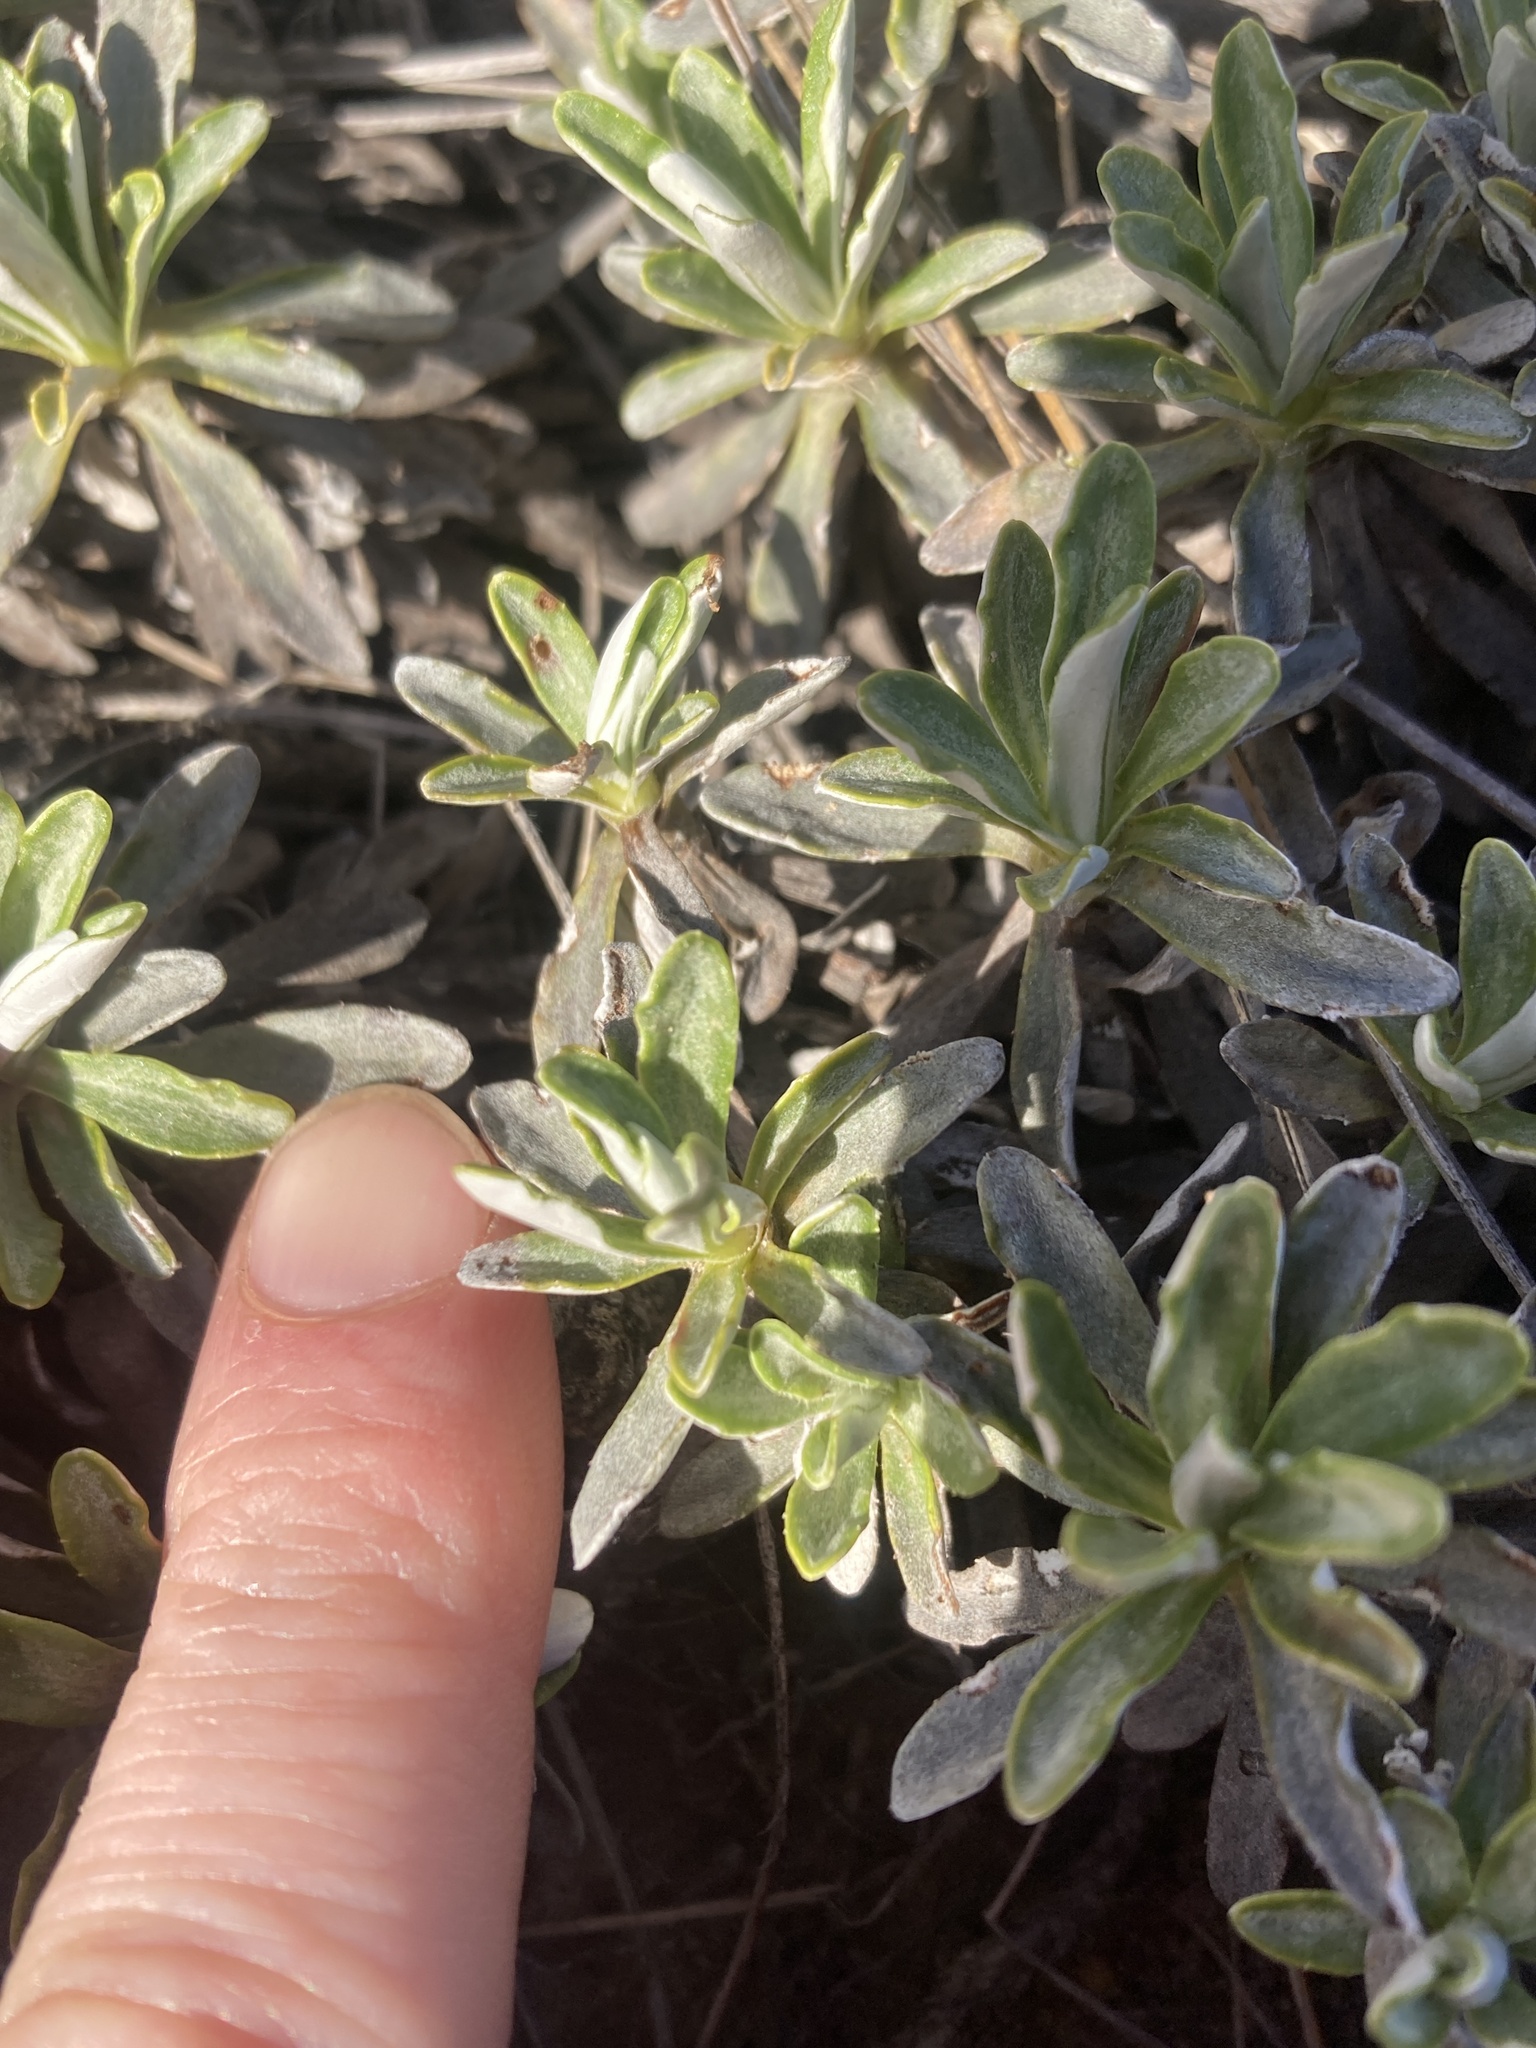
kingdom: Plantae
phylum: Tracheophyta
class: Magnoliopsida
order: Asterales
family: Asteraceae
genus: Celmisia
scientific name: Celmisia angustifolia
